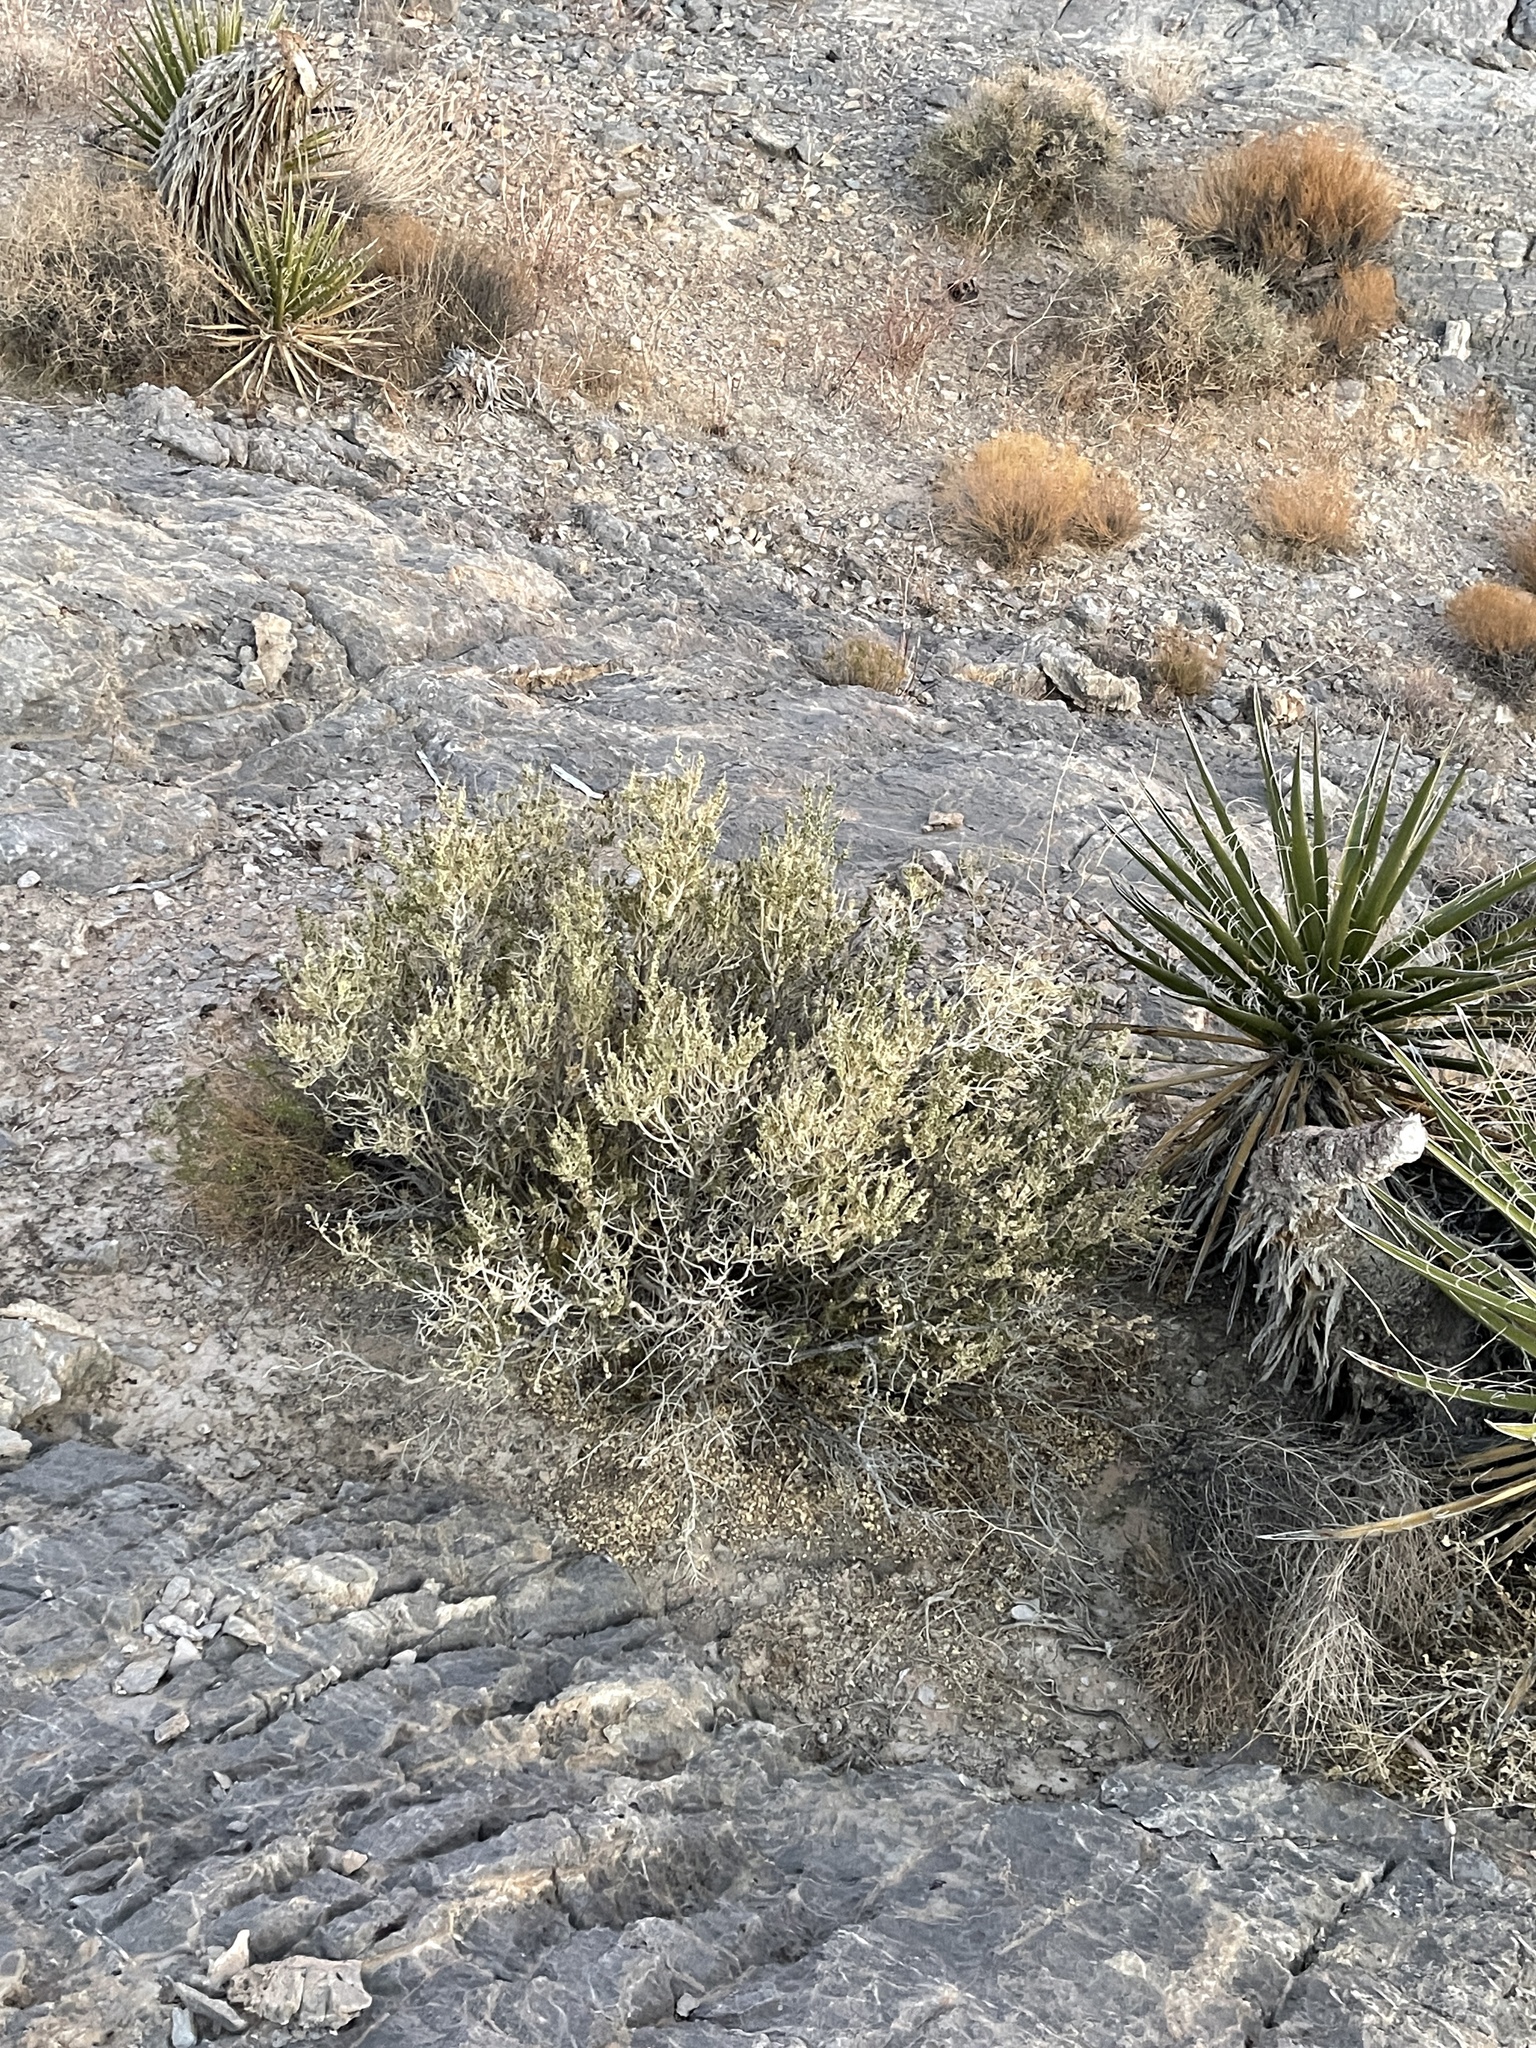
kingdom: Plantae
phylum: Tracheophyta
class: Magnoliopsida
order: Celastrales
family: Celastraceae
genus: Mortonia
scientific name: Mortonia utahensis
